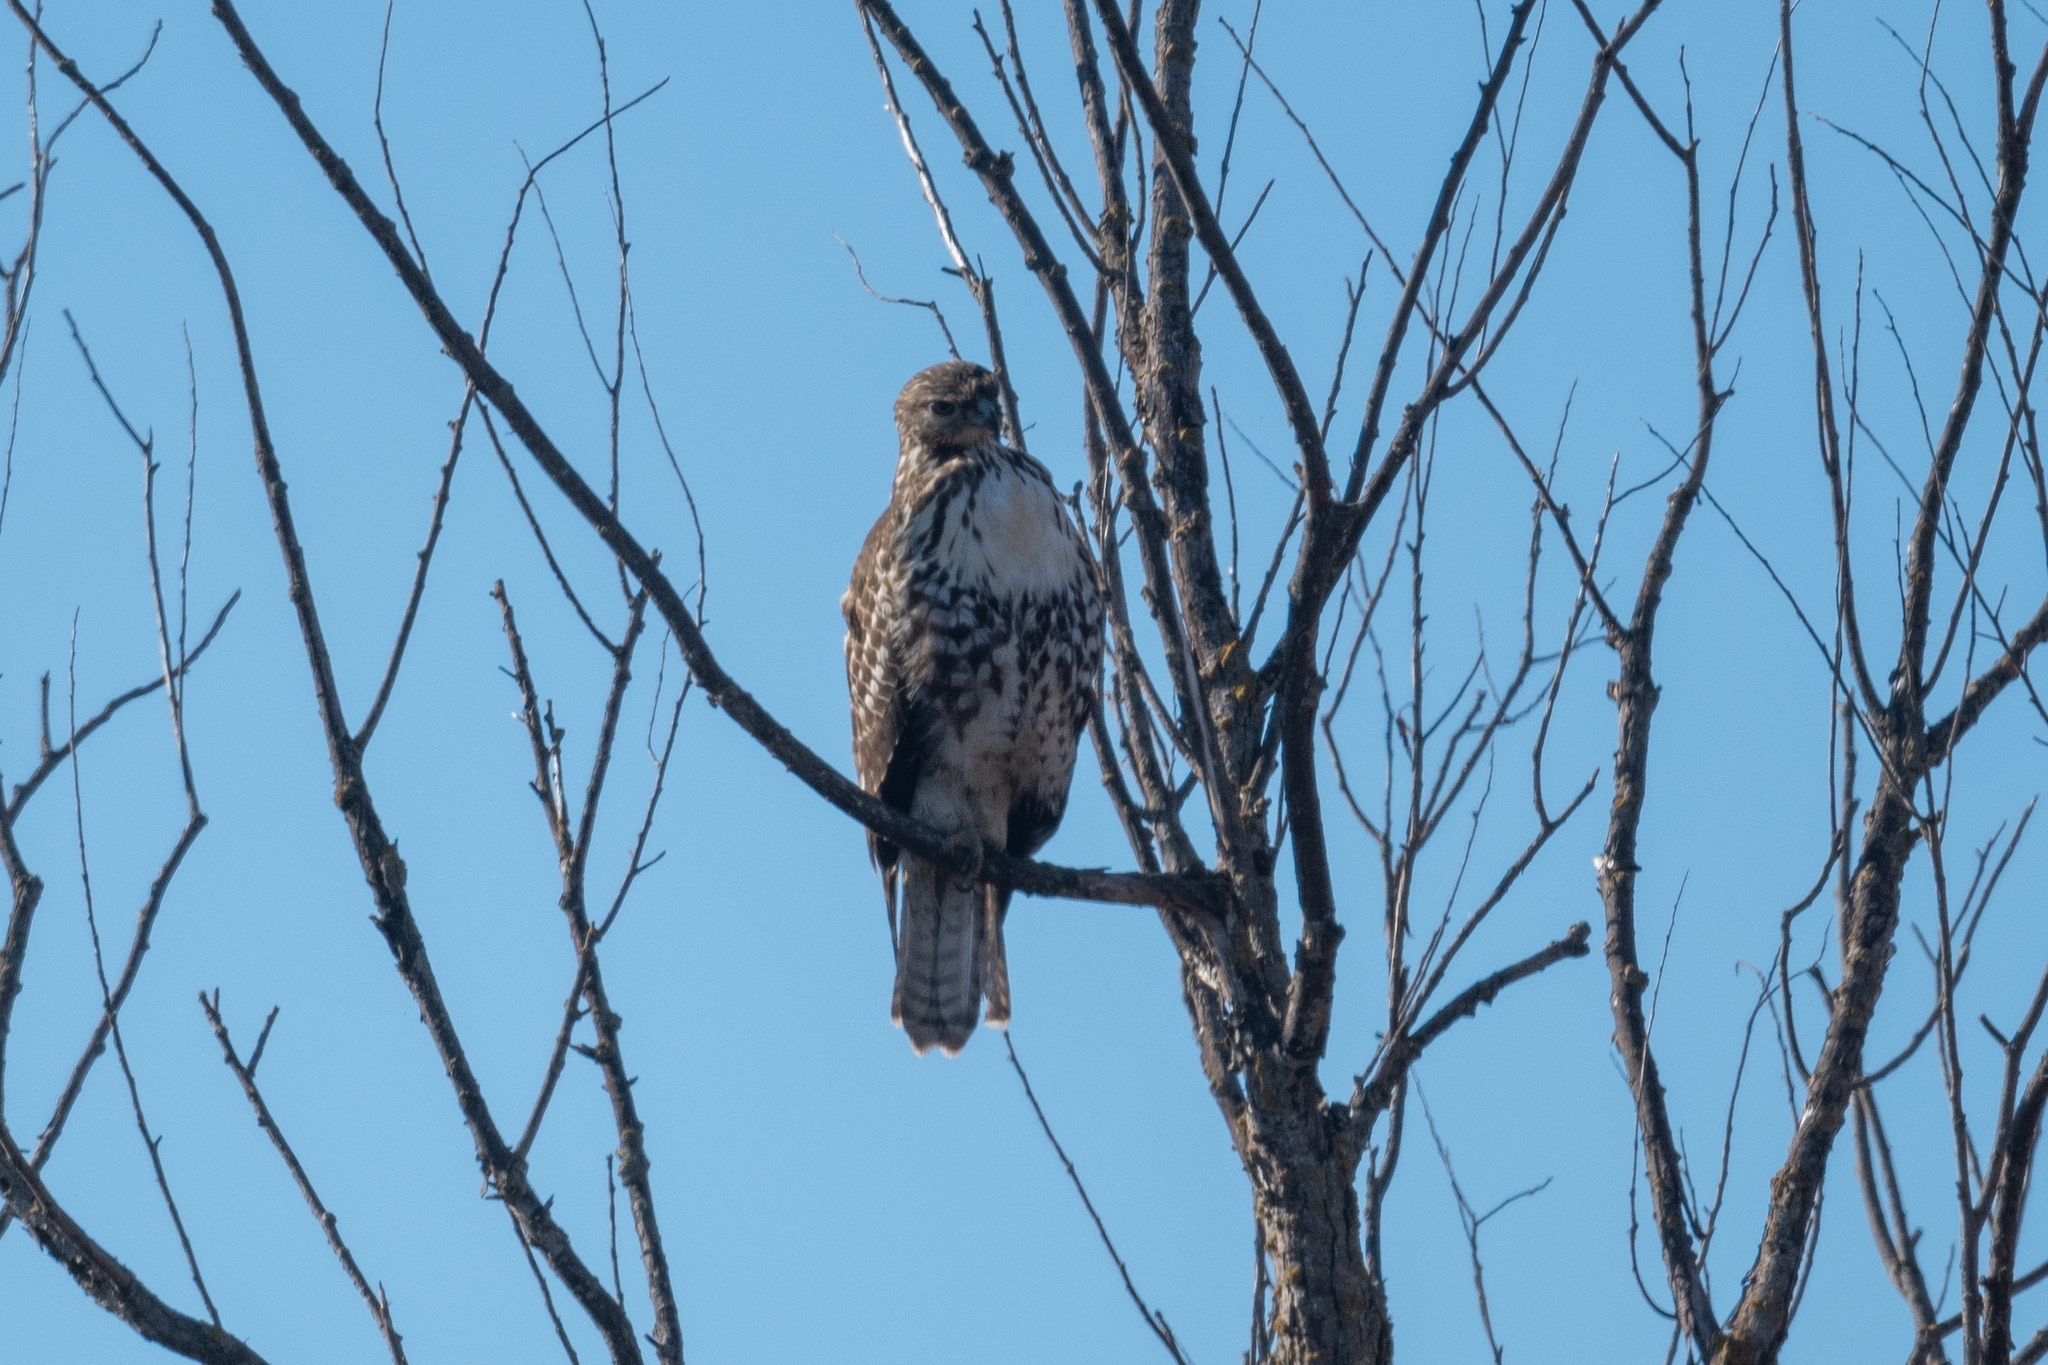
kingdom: Animalia
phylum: Chordata
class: Aves
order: Accipitriformes
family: Accipitridae
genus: Buteo
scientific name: Buteo jamaicensis
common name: Red-tailed hawk
